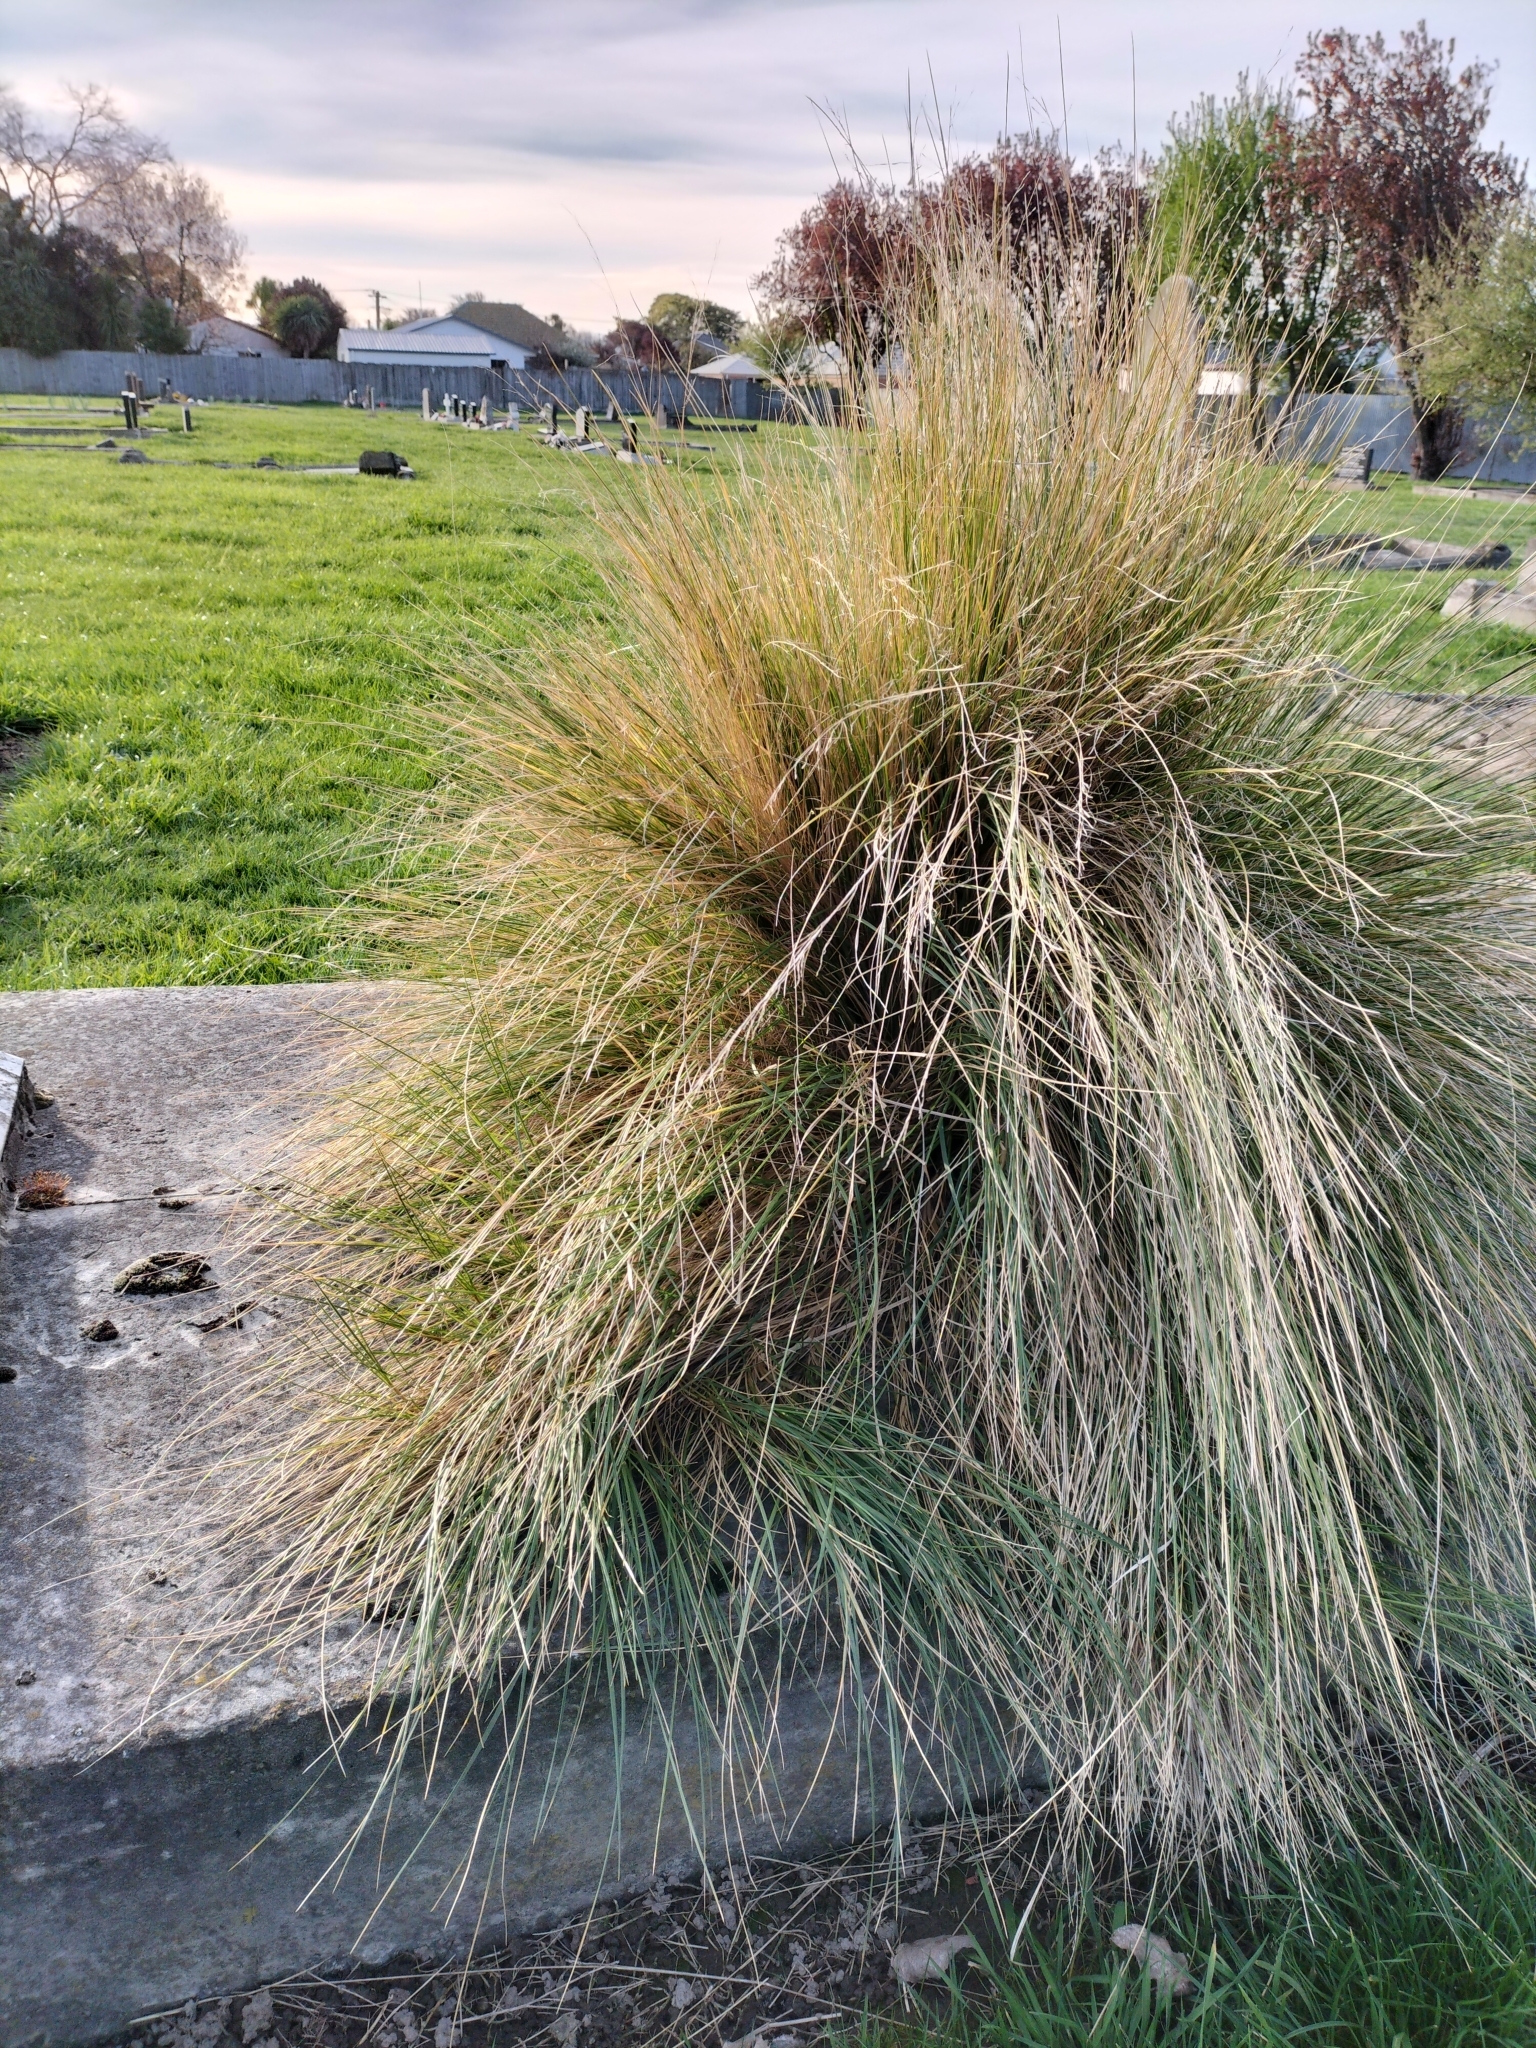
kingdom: Plantae
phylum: Tracheophyta
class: Liliopsida
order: Poales
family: Poaceae
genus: Poa
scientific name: Poa cita
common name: Silver tussock
